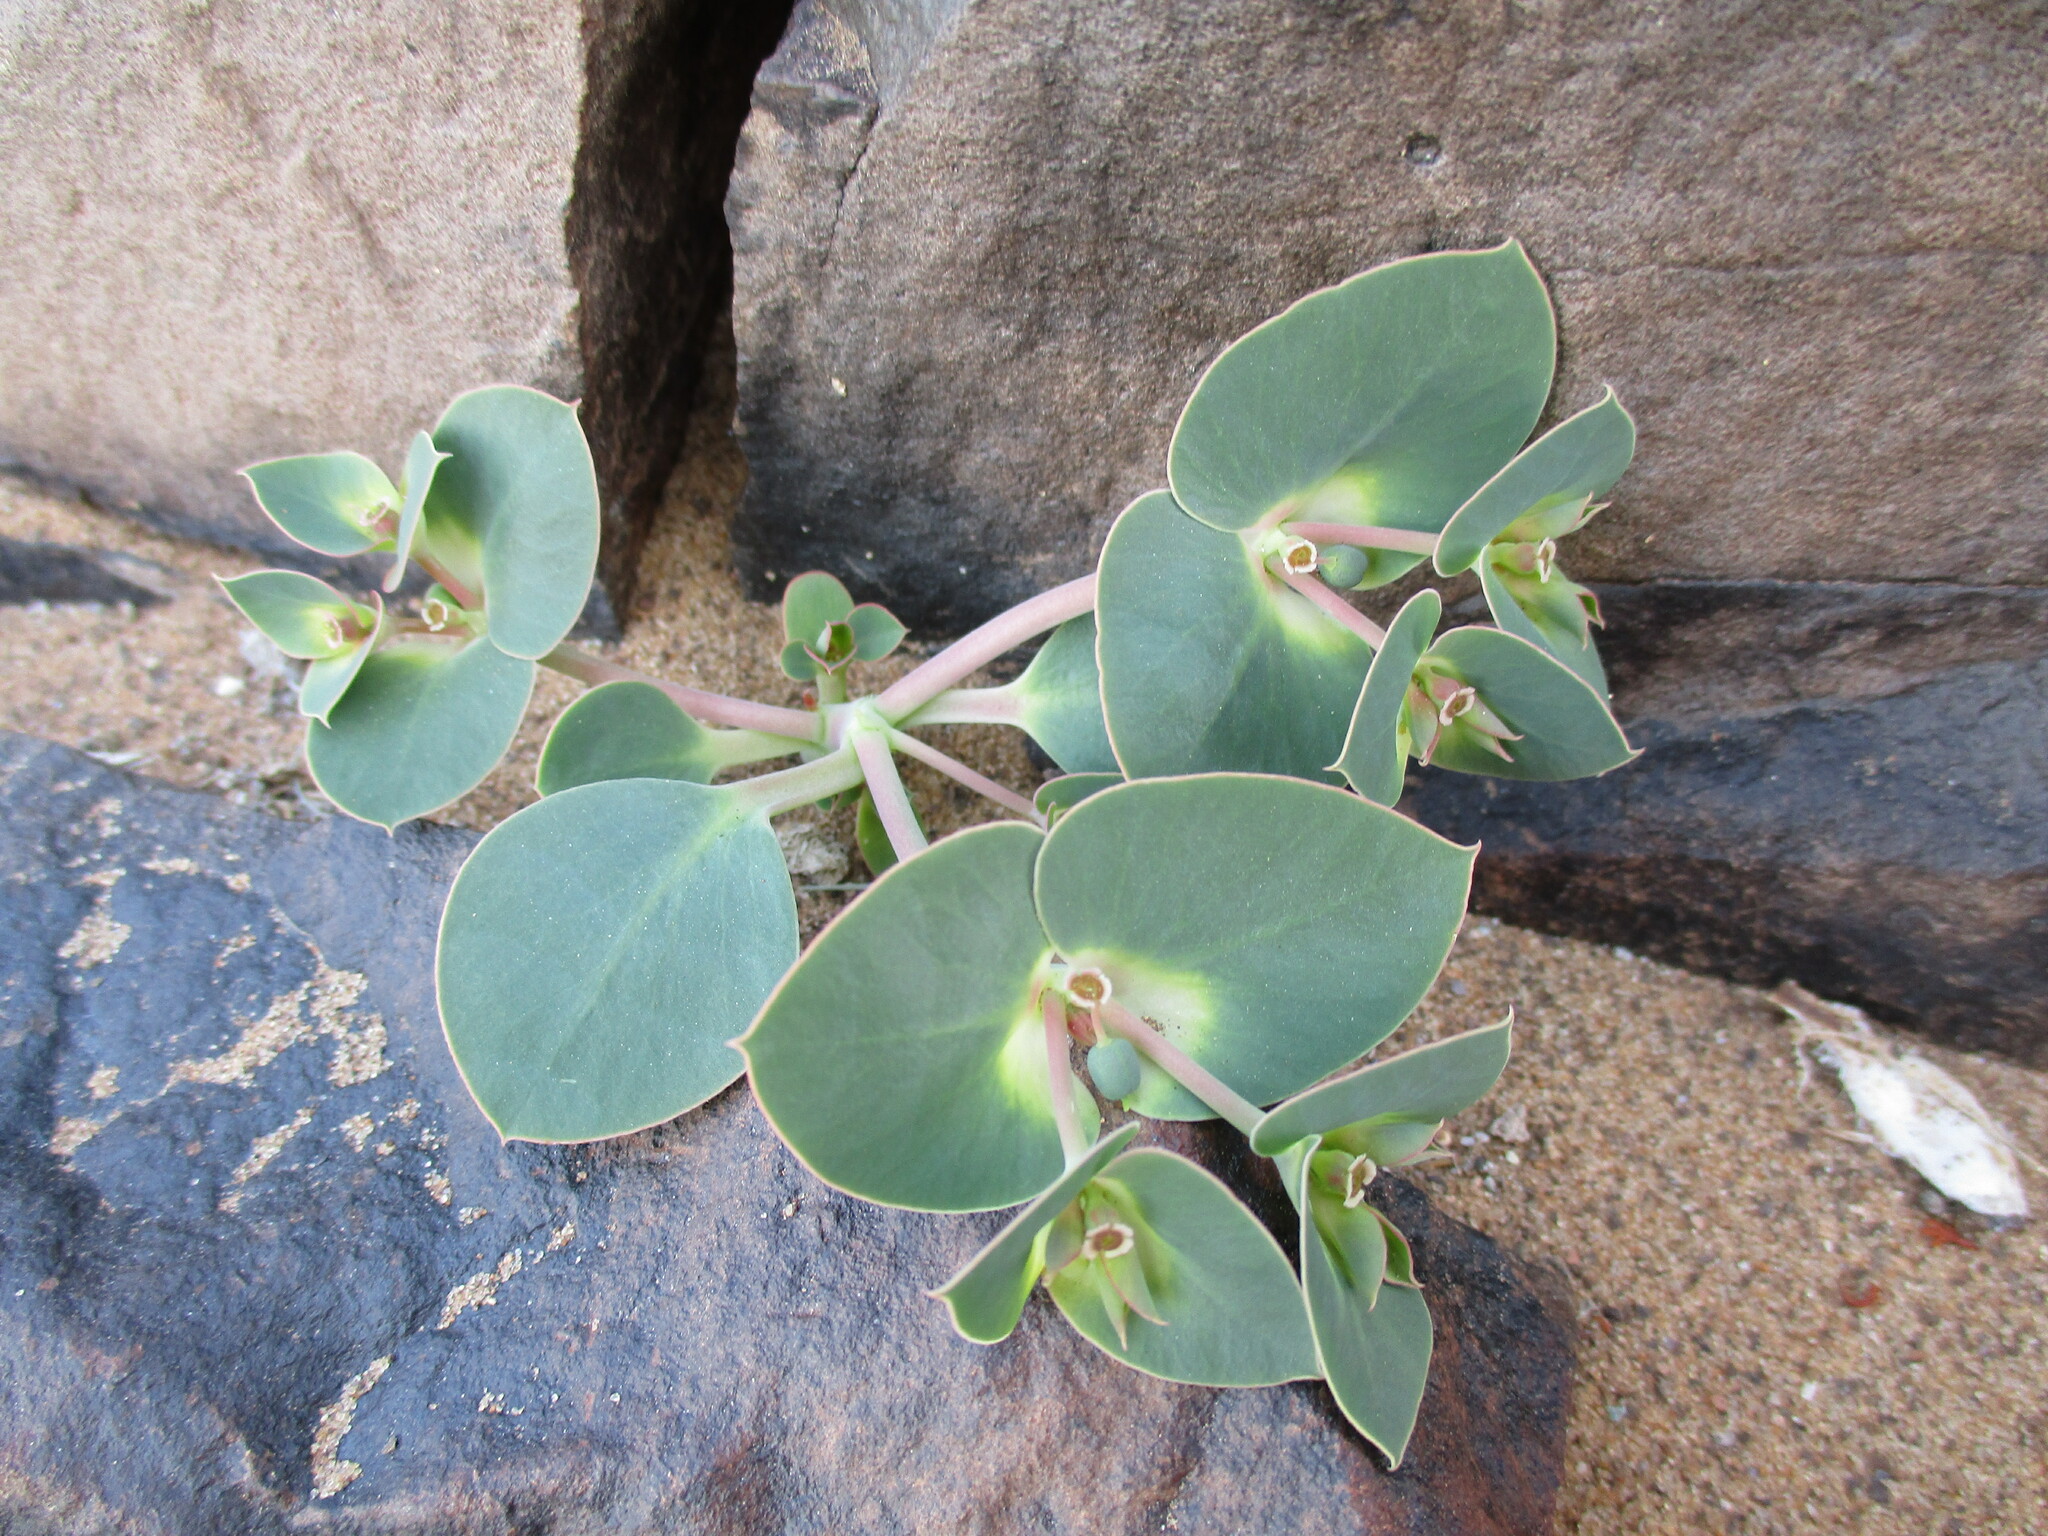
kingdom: Plantae
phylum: Tracheophyta
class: Magnoliopsida
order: Malpighiales
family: Euphorbiaceae
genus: Euphorbia
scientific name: Euphorbia phylloclada
